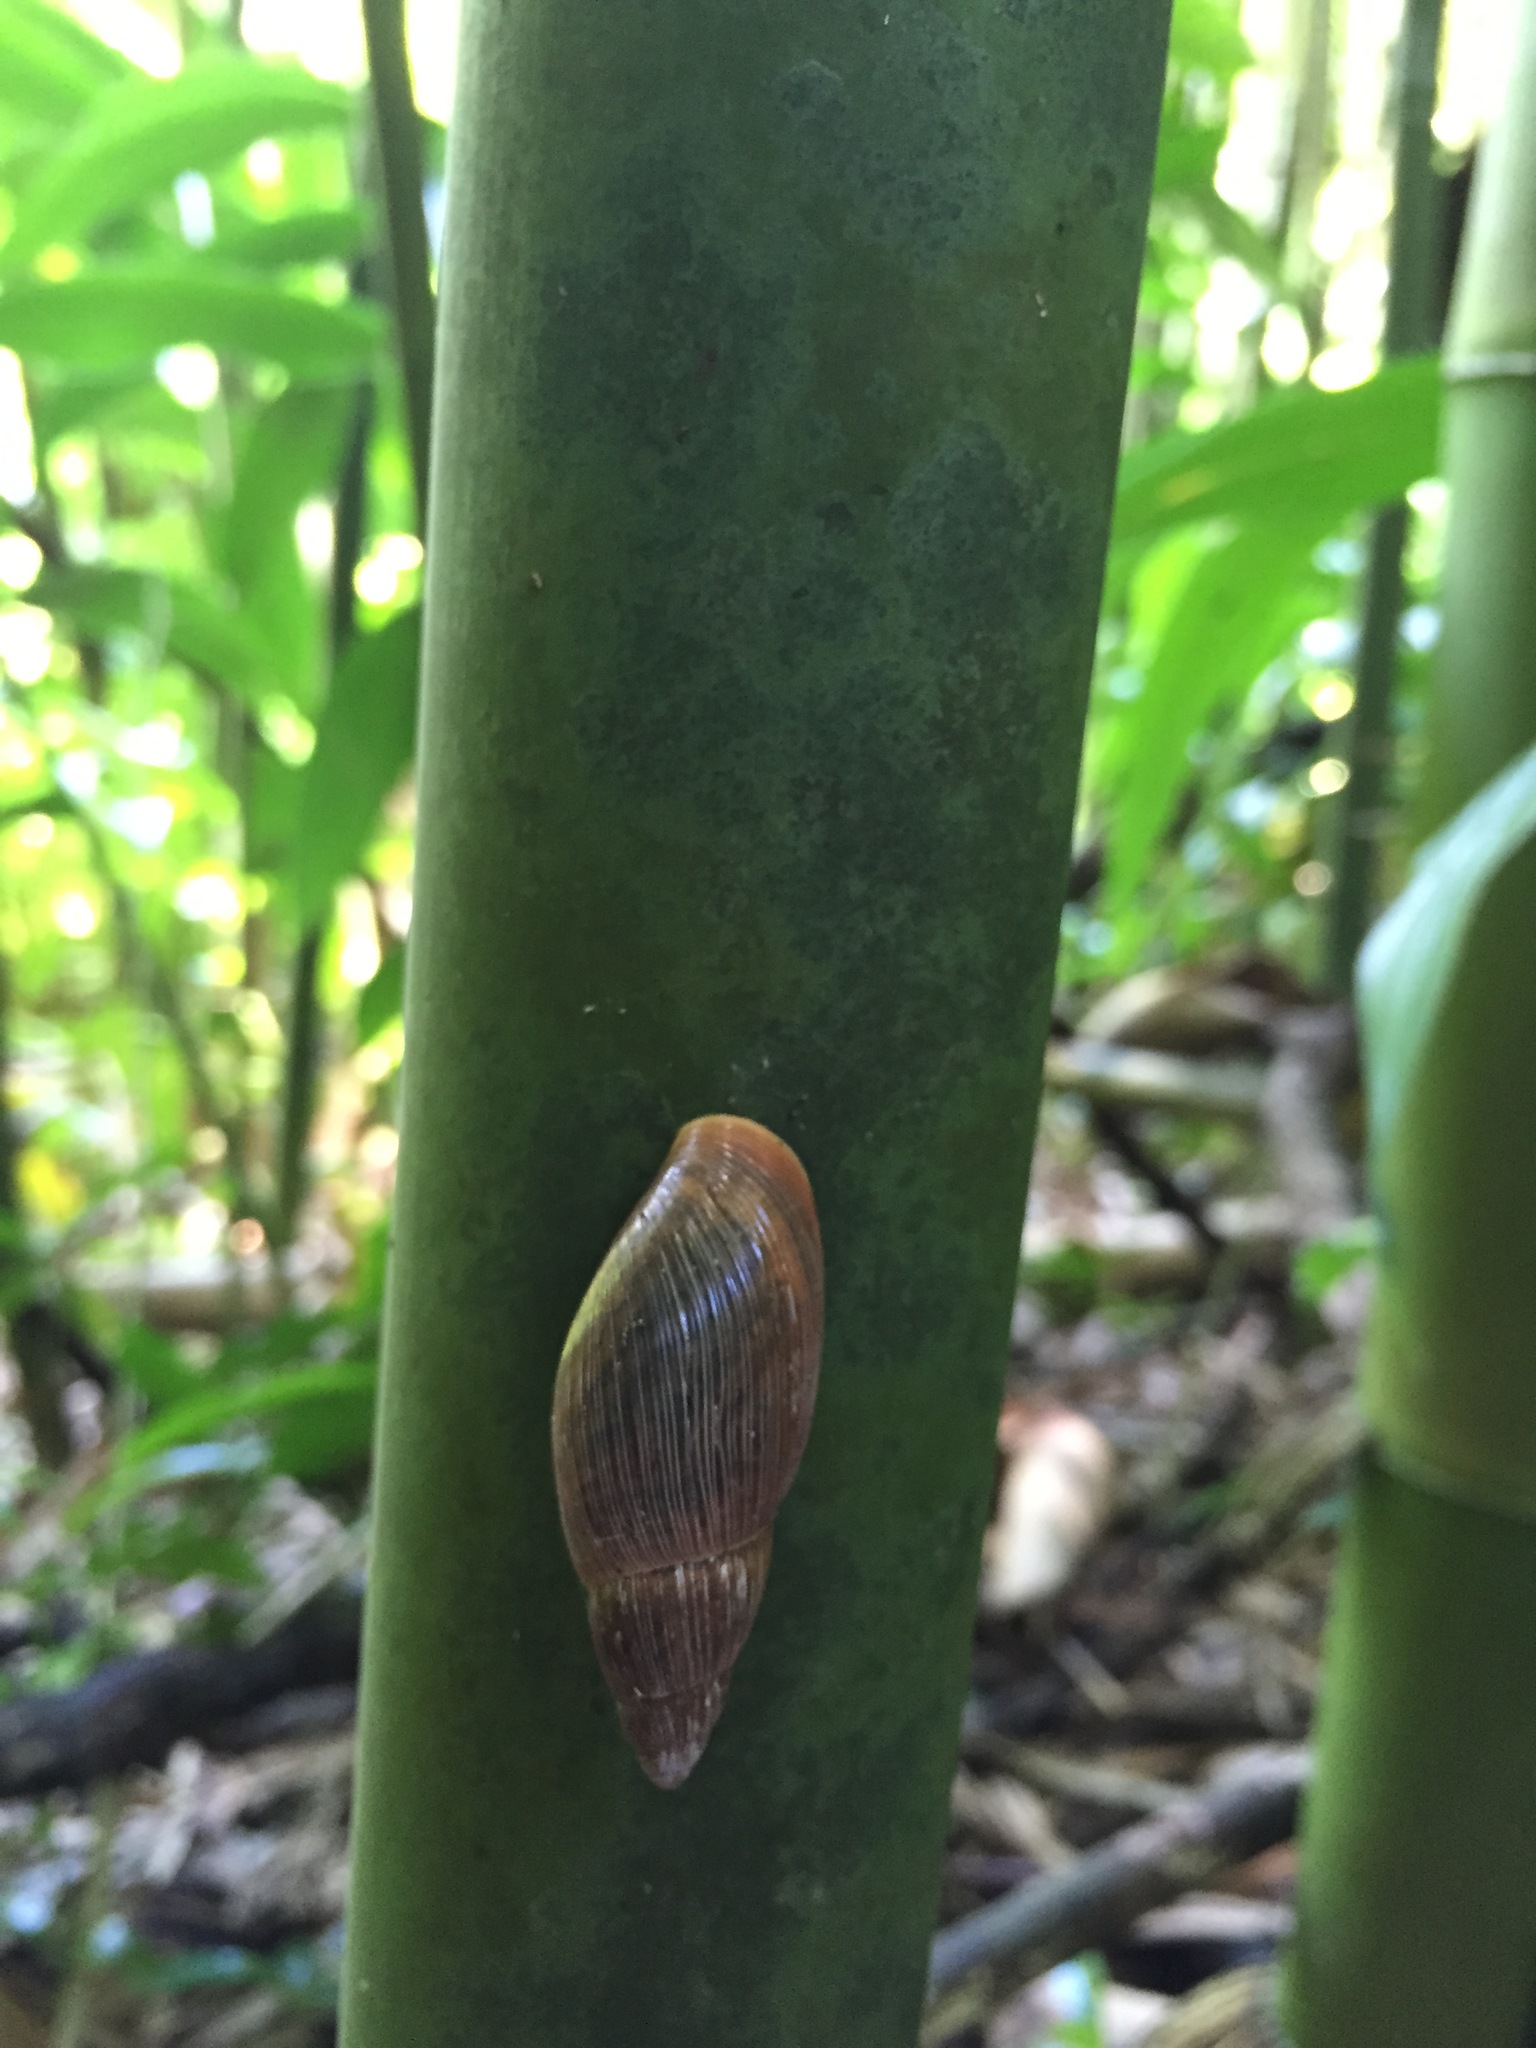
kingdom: Animalia
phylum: Mollusca
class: Gastropoda
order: Stylommatophora
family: Spiraxidae
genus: Euglandina
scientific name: Euglandina rosea
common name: Rosy wolfsnail
